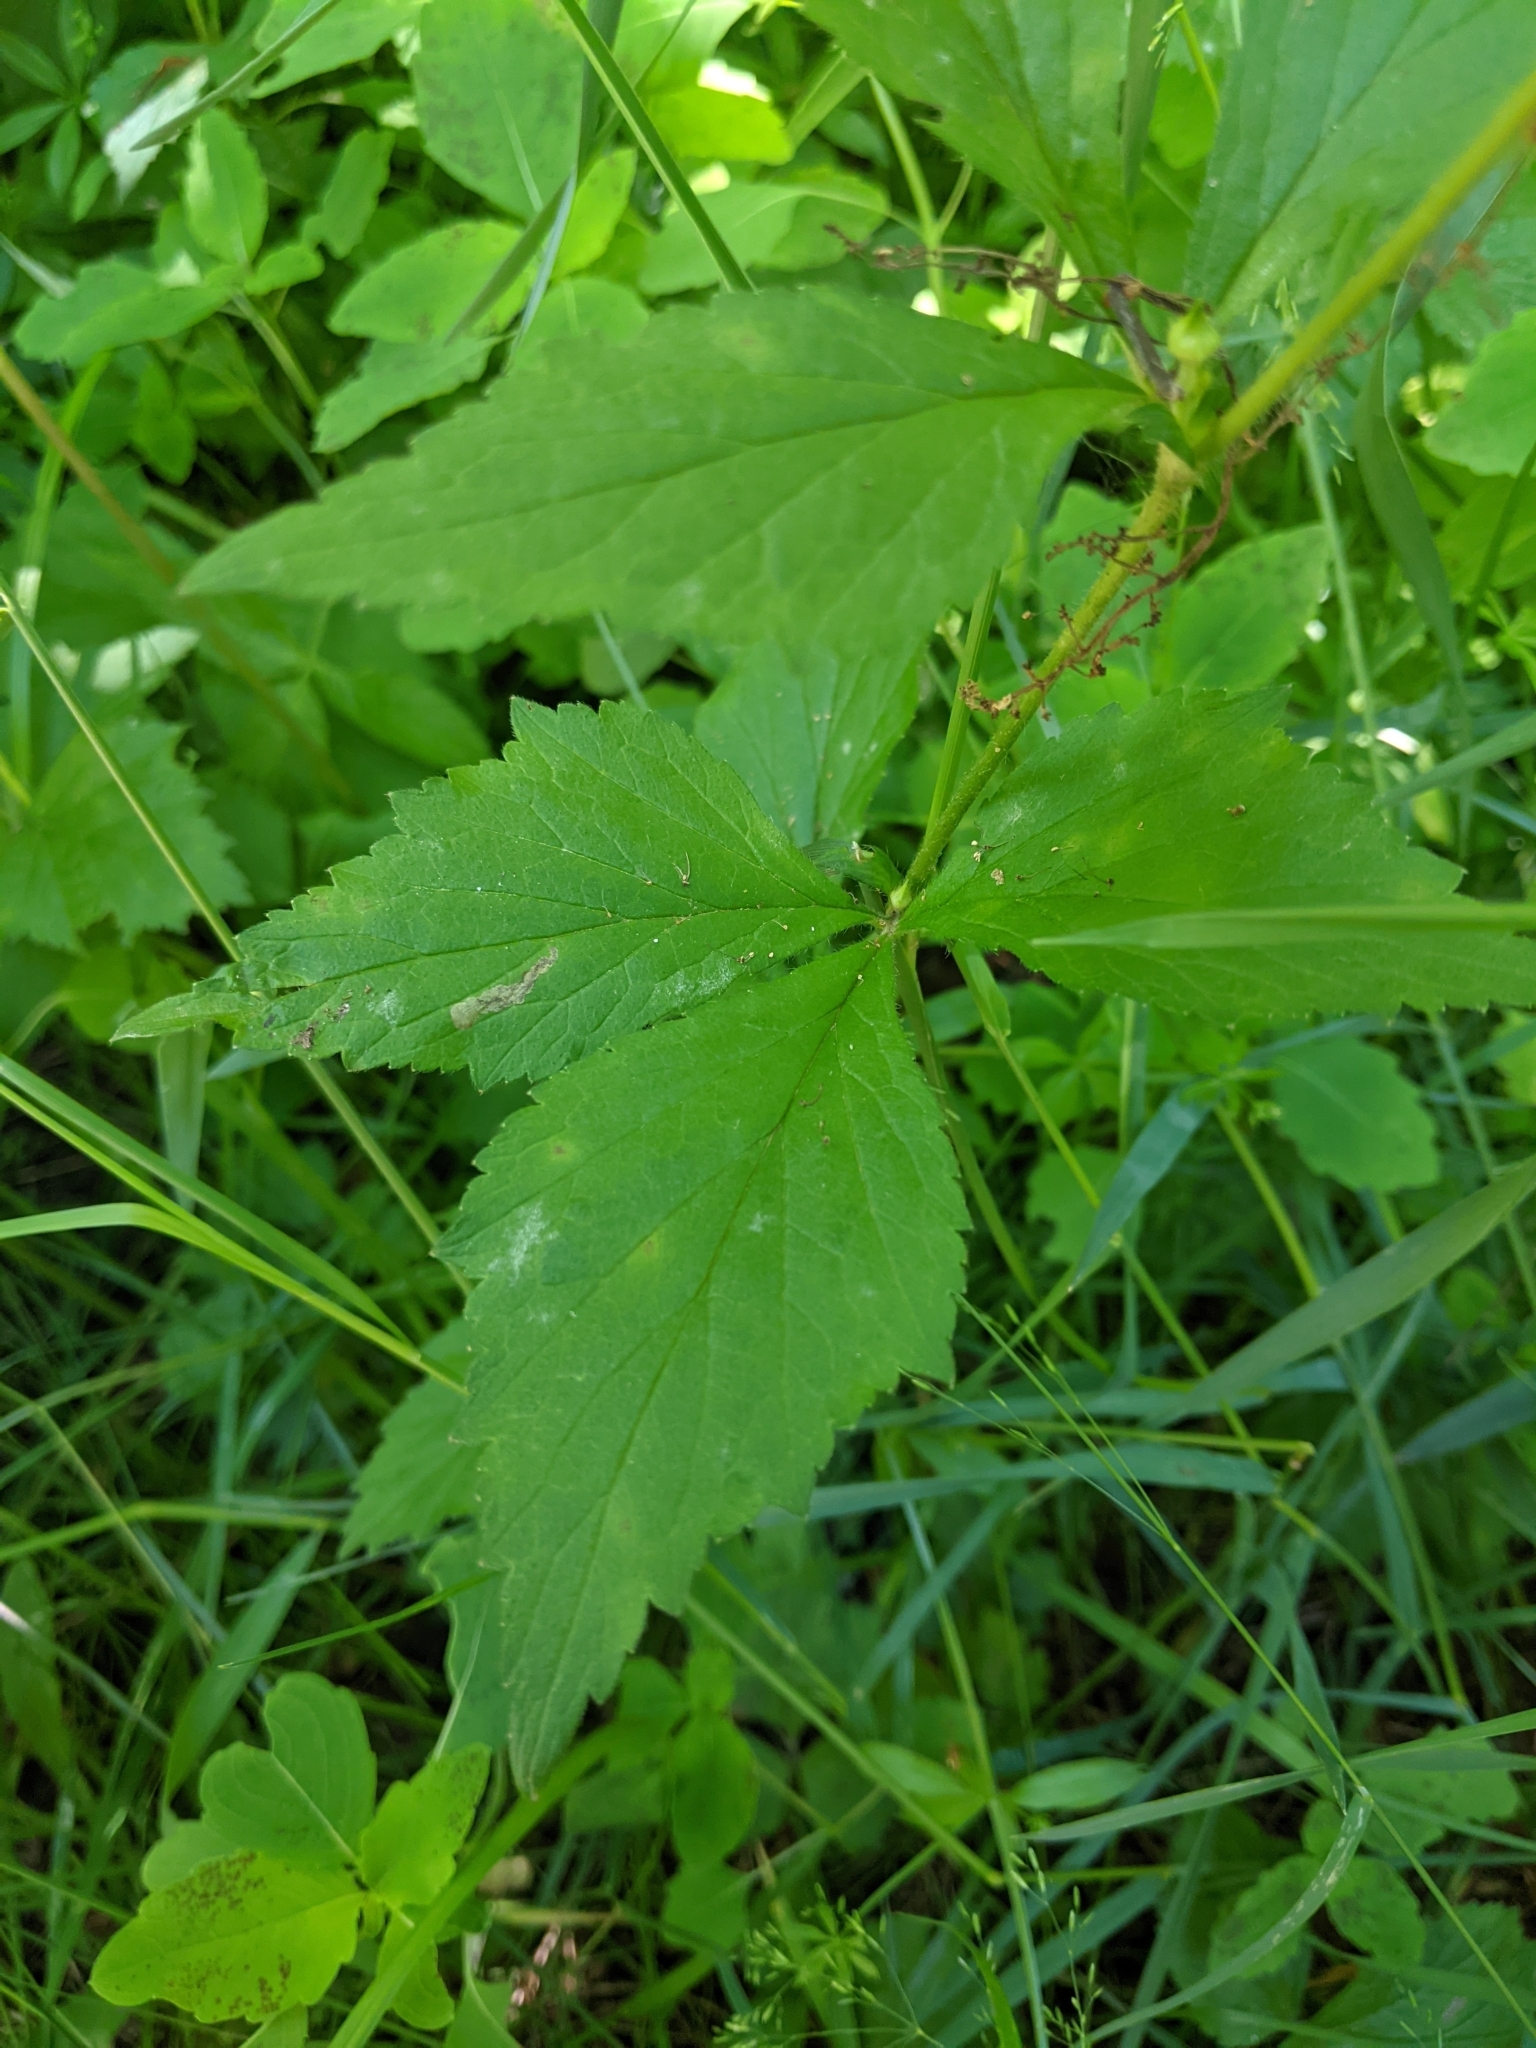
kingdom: Plantae
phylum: Tracheophyta
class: Magnoliopsida
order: Rosales
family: Rosaceae
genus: Geum
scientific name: Geum canadense
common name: White avens
